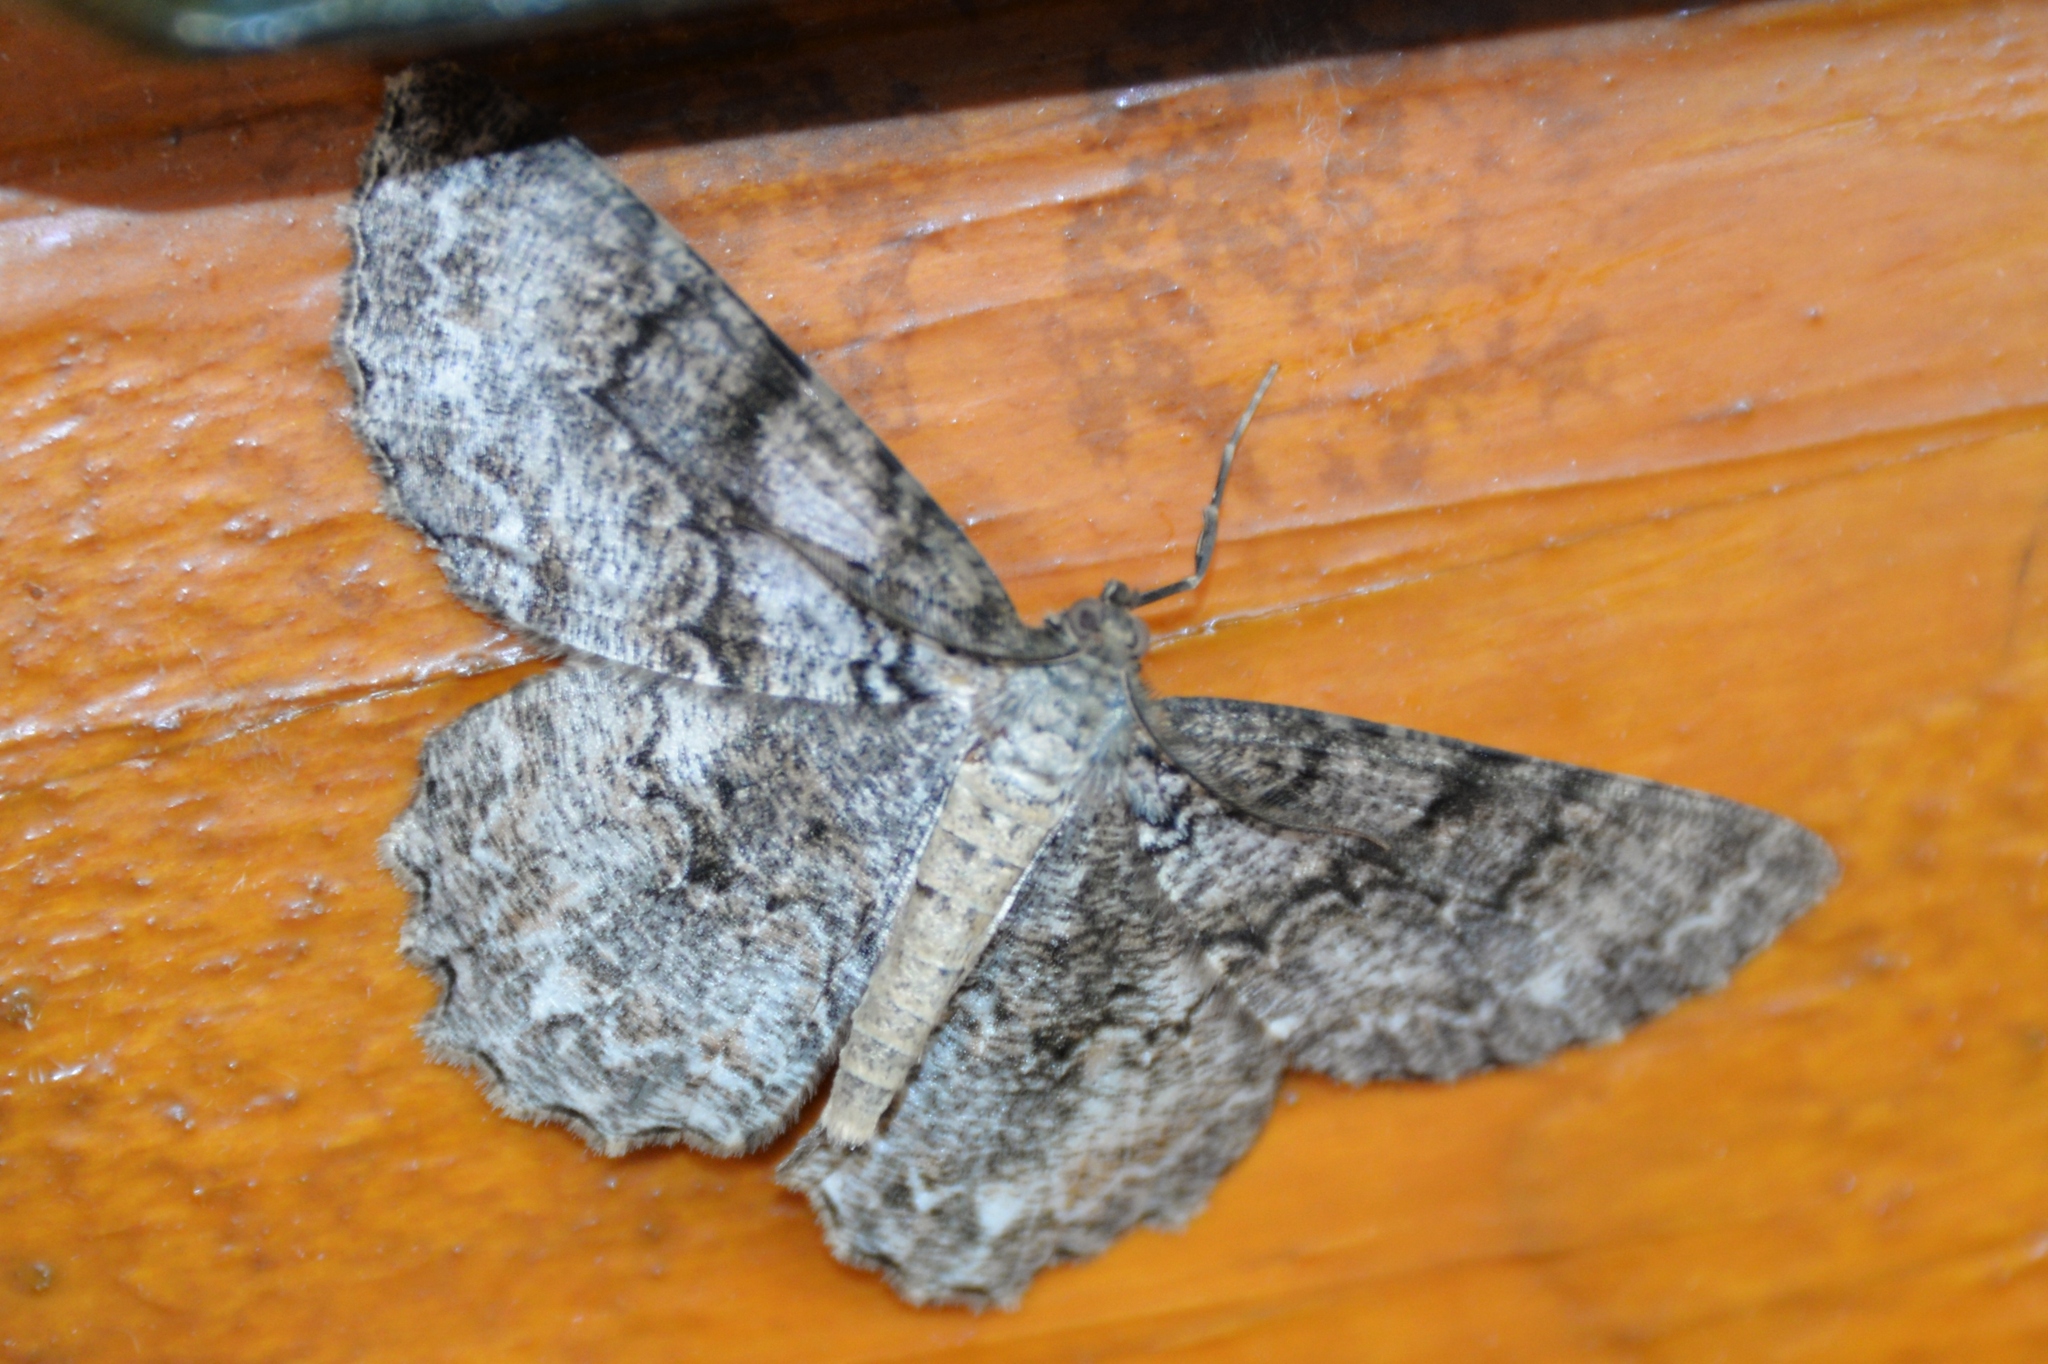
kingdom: Animalia
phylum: Arthropoda
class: Insecta
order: Lepidoptera
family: Geometridae
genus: Epimecis
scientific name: Epimecis hortaria
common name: Tulip-tree beauty
